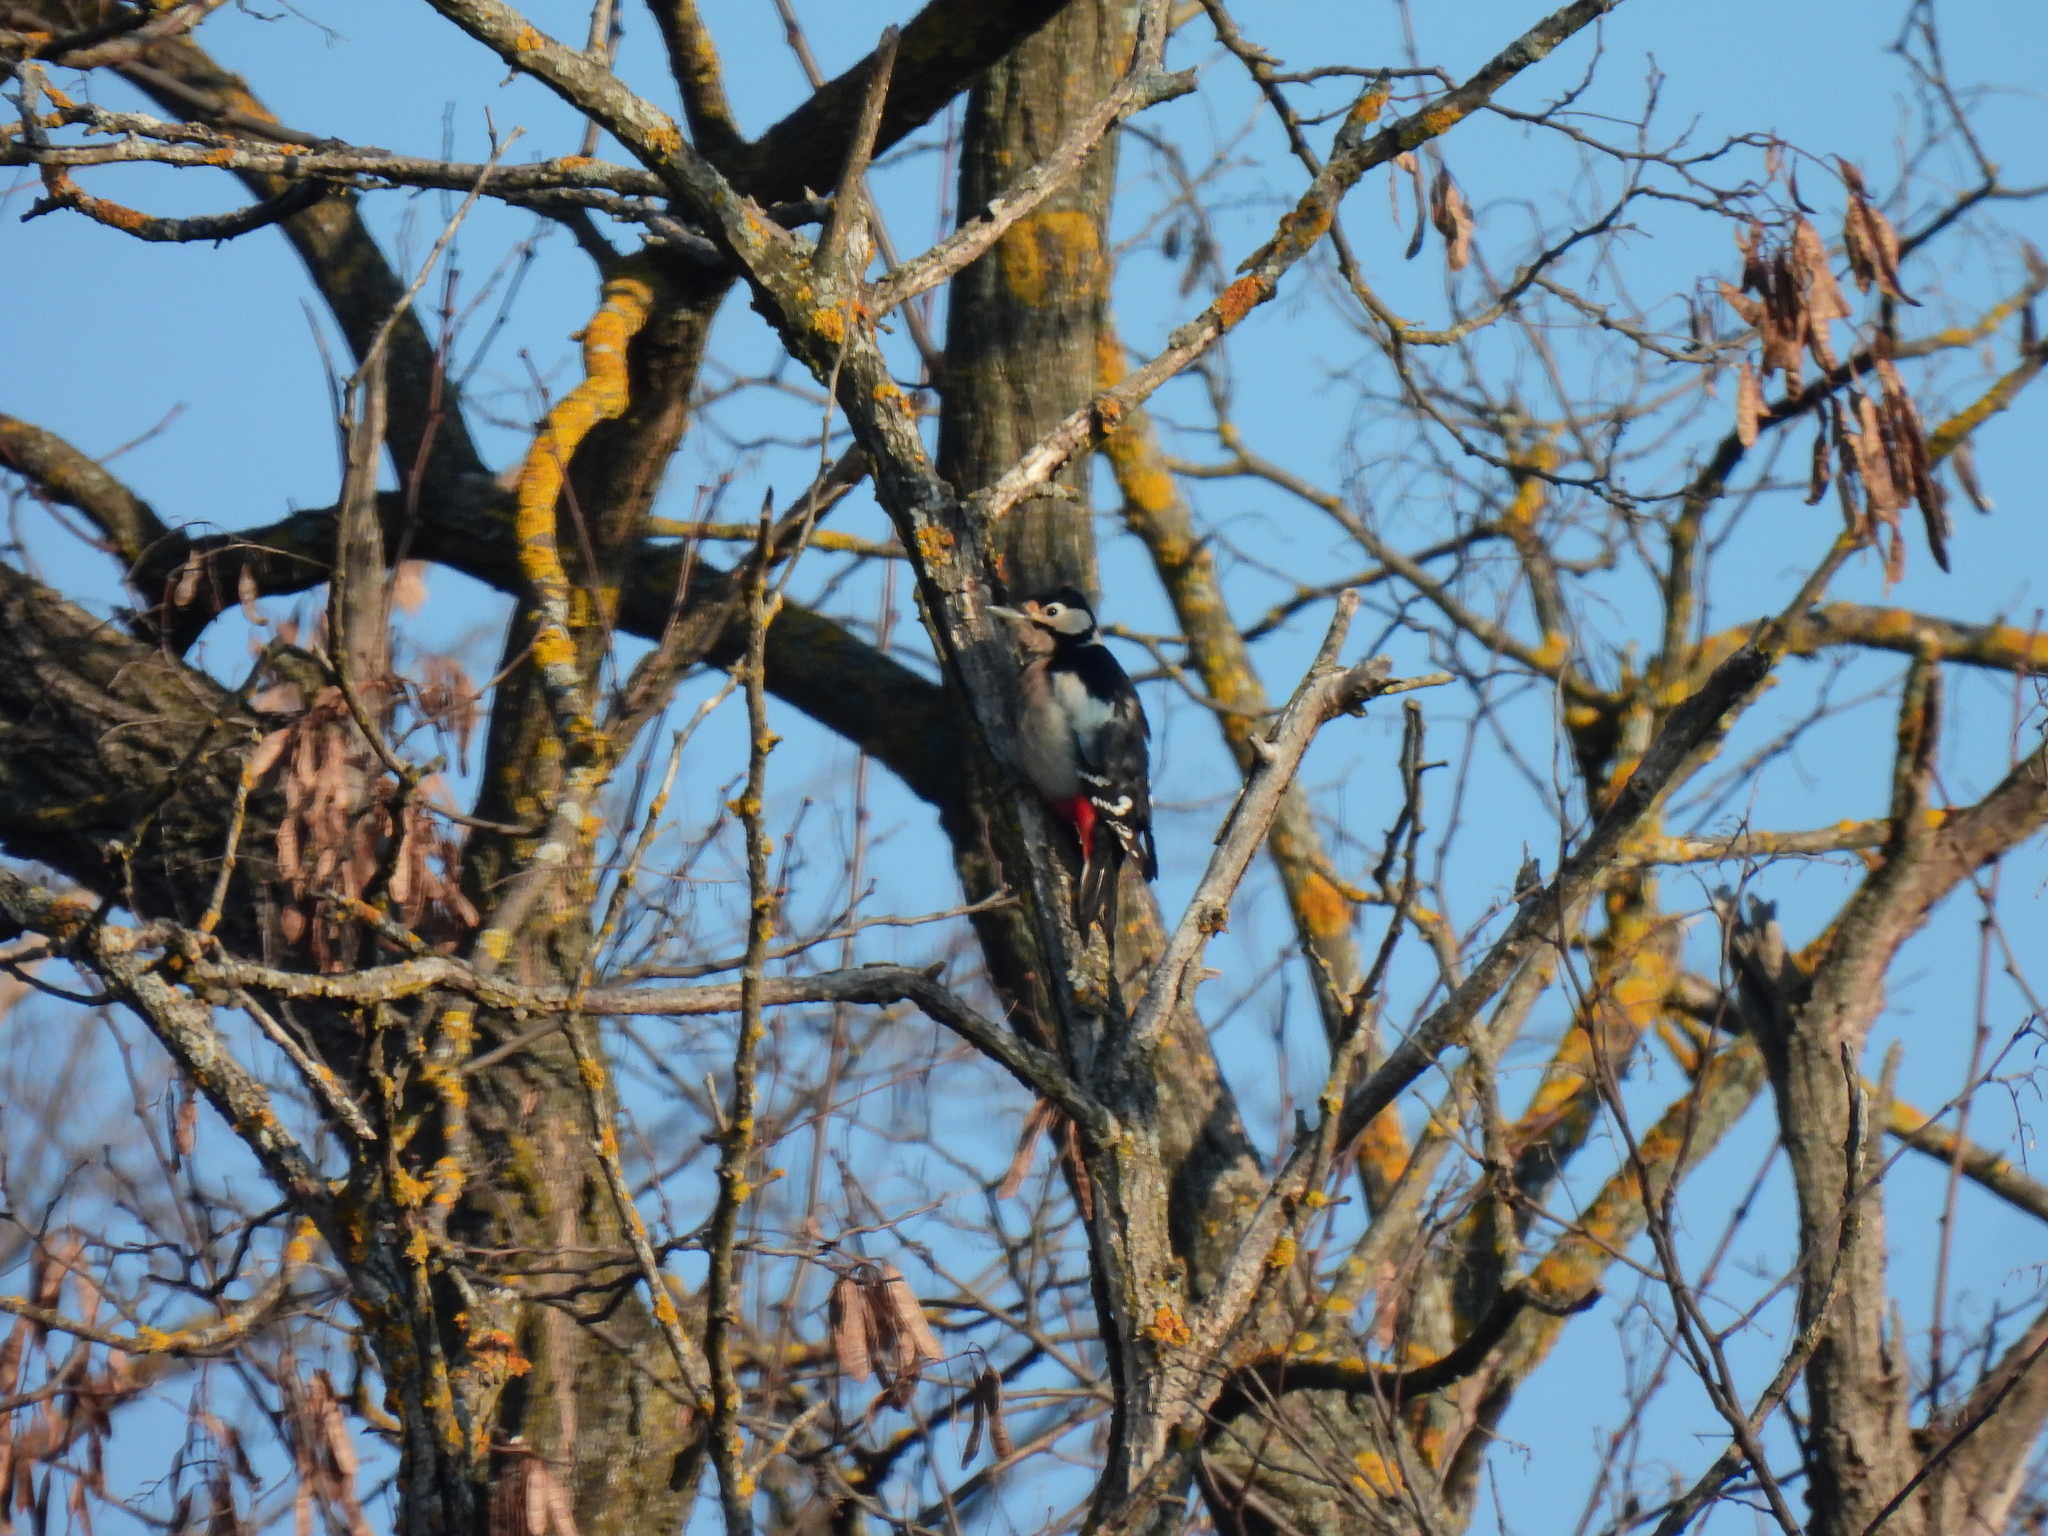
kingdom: Animalia
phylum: Chordata
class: Aves
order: Piciformes
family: Picidae
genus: Dendrocopos
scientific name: Dendrocopos major
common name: Great spotted woodpecker
